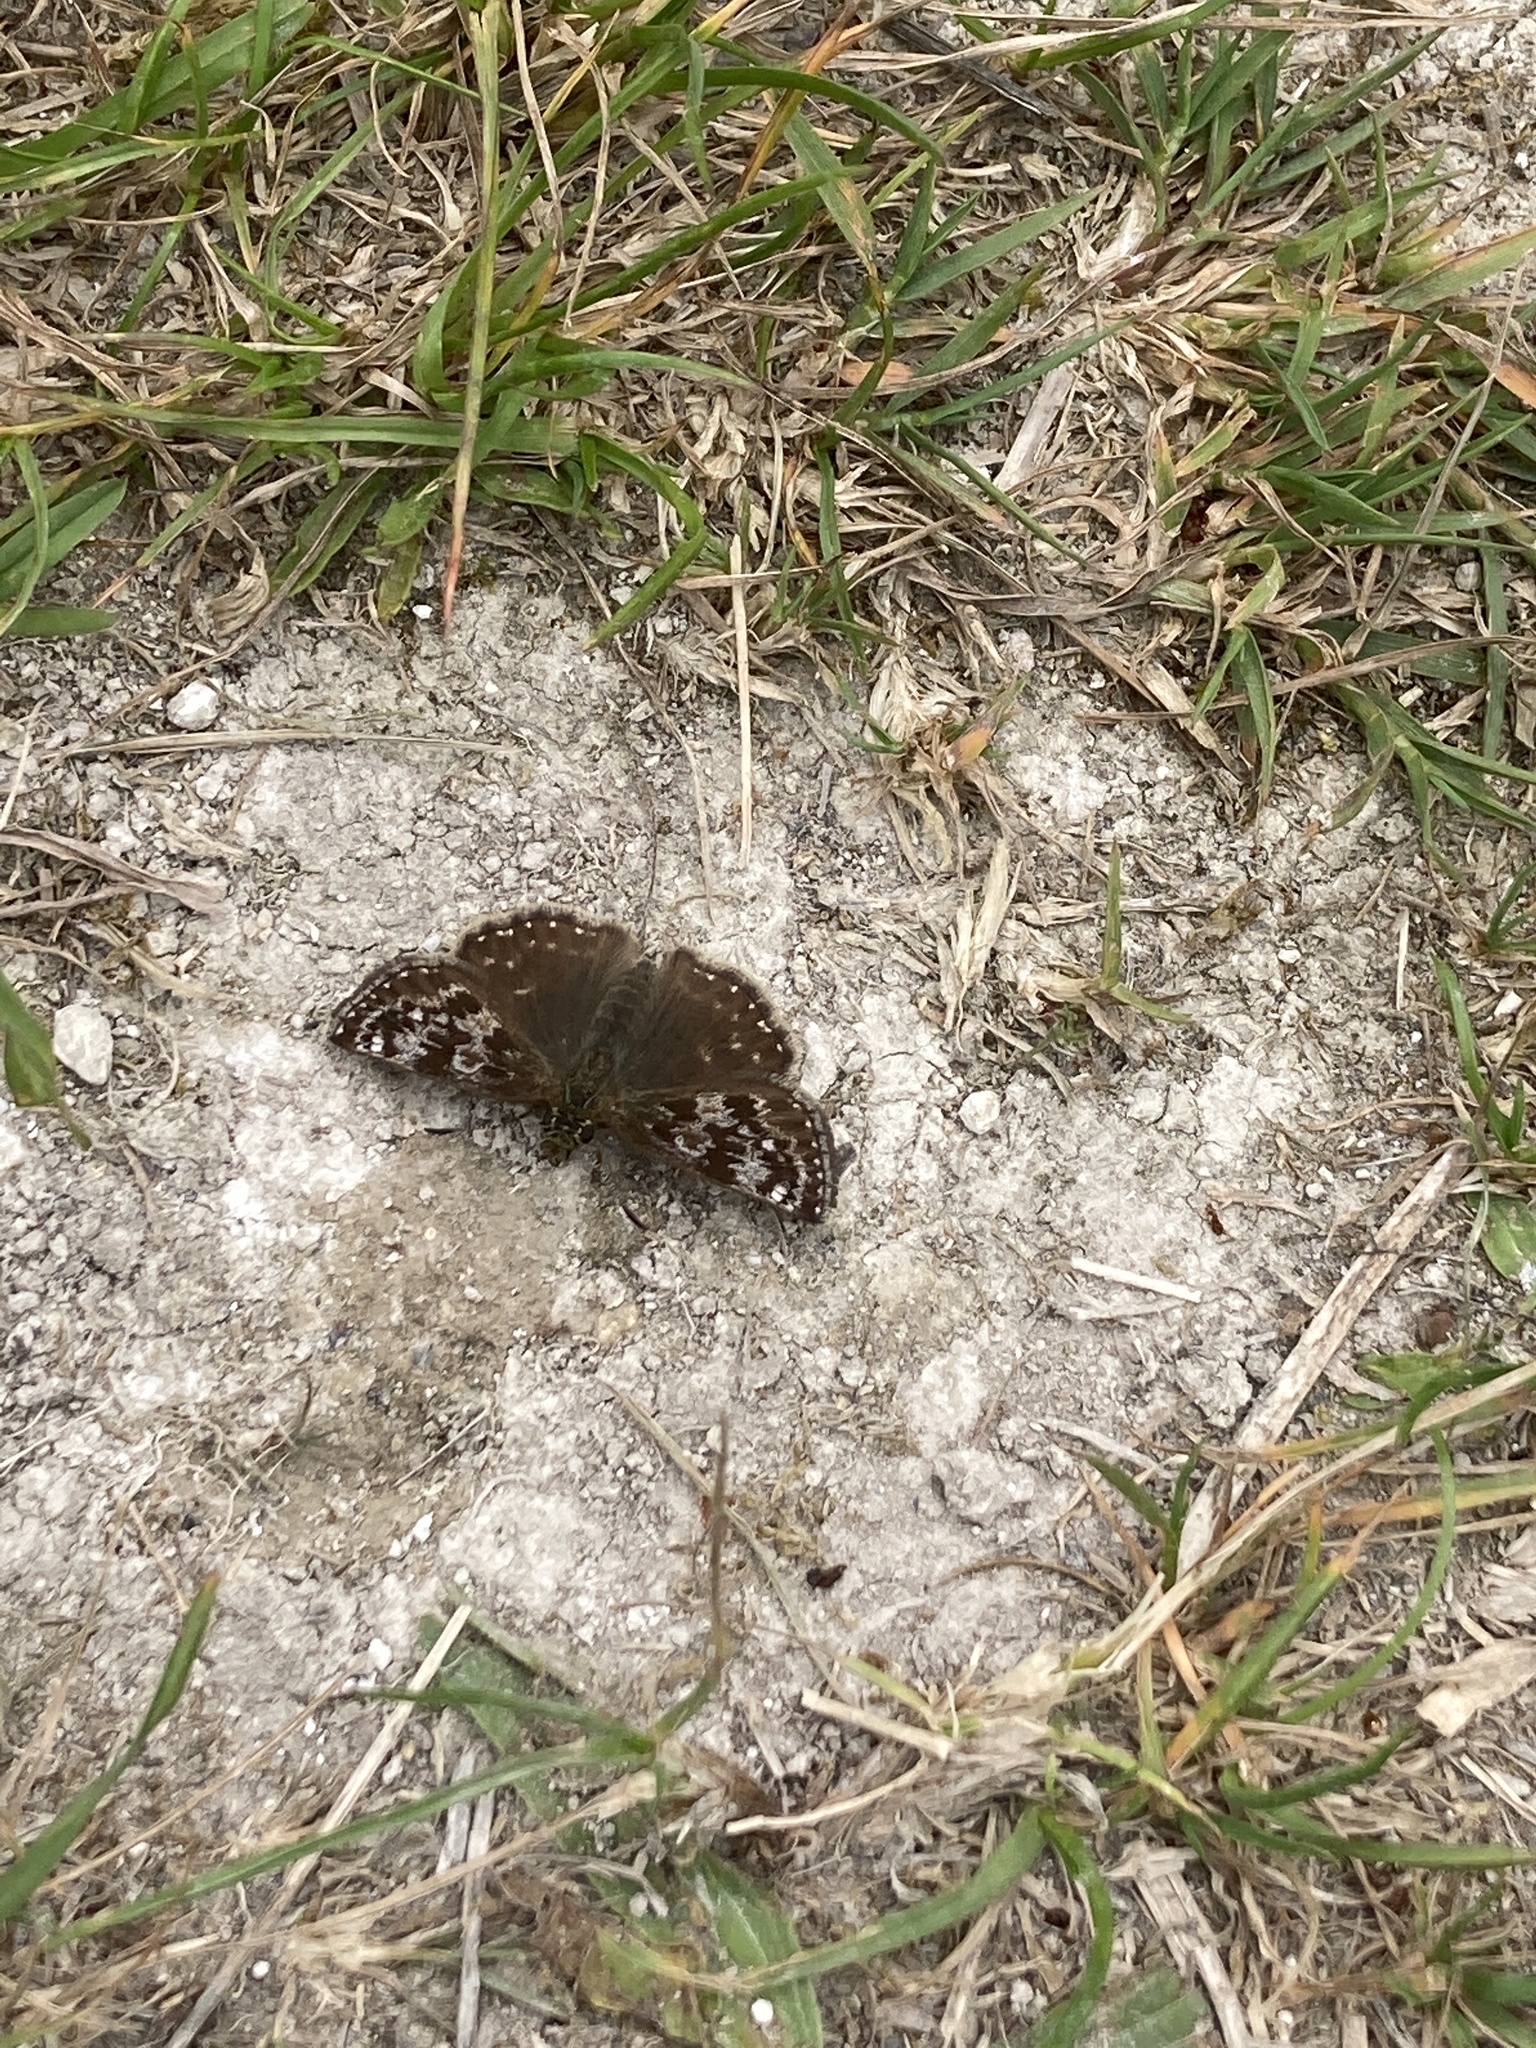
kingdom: Animalia
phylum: Arthropoda
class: Insecta
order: Lepidoptera
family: Hesperiidae
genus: Erynnis
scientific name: Erynnis tages
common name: Dingy skipper
